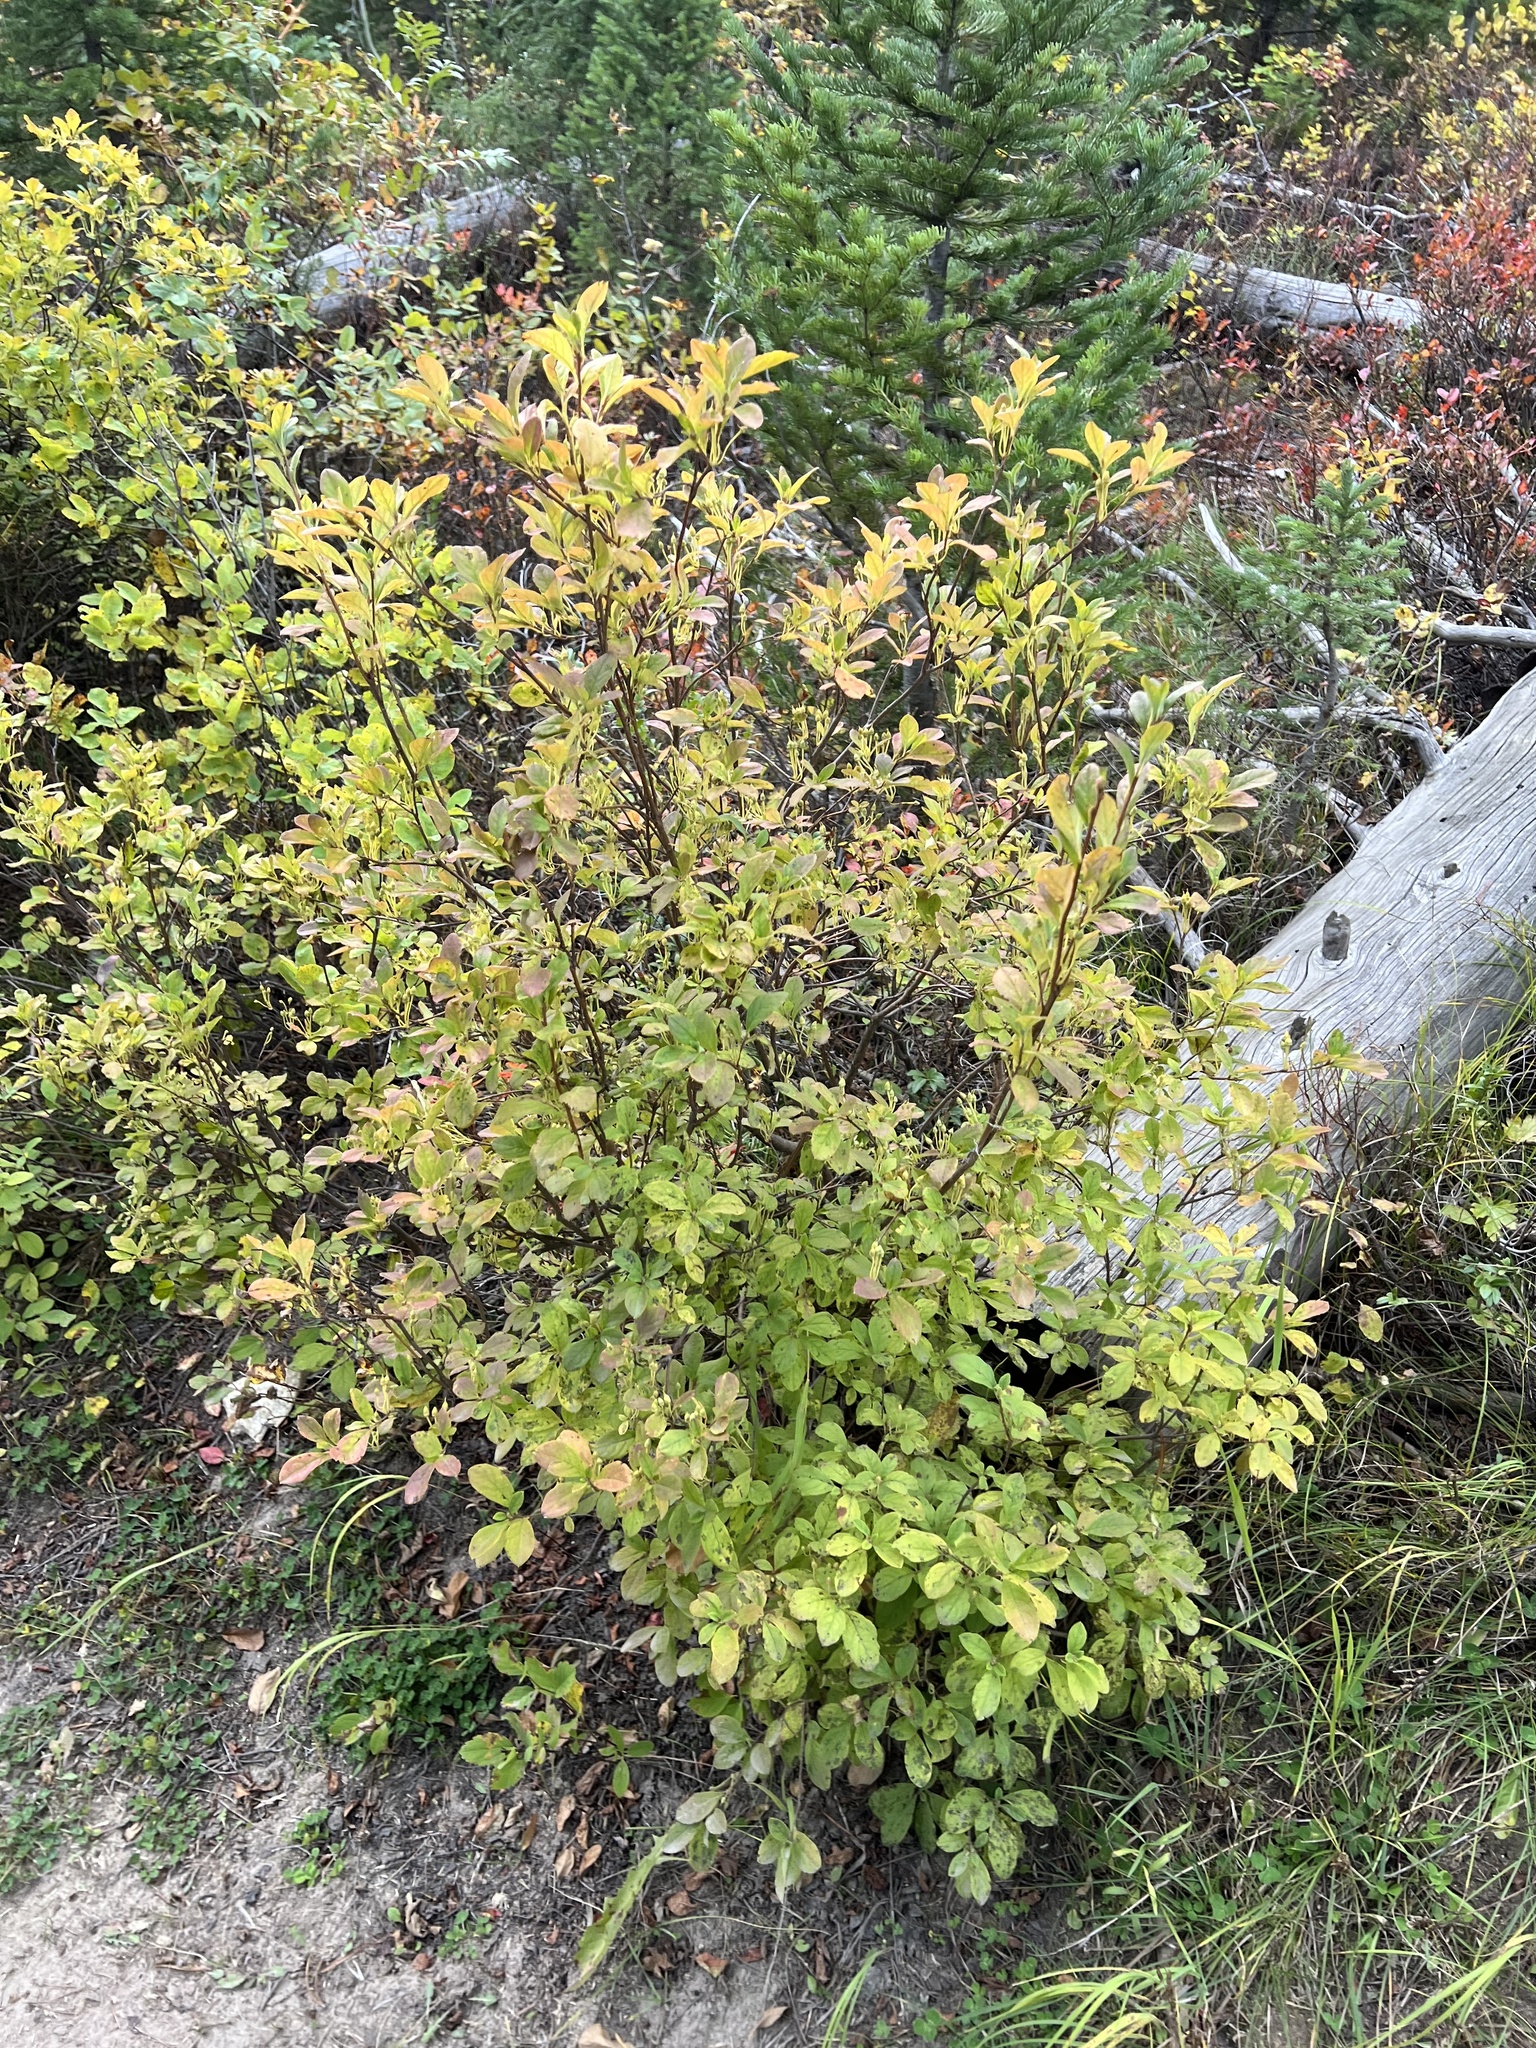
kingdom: Plantae
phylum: Tracheophyta
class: Magnoliopsida
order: Ericales
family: Ericaceae
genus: Rhododendron
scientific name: Rhododendron menziesii
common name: Pacific menziesia
